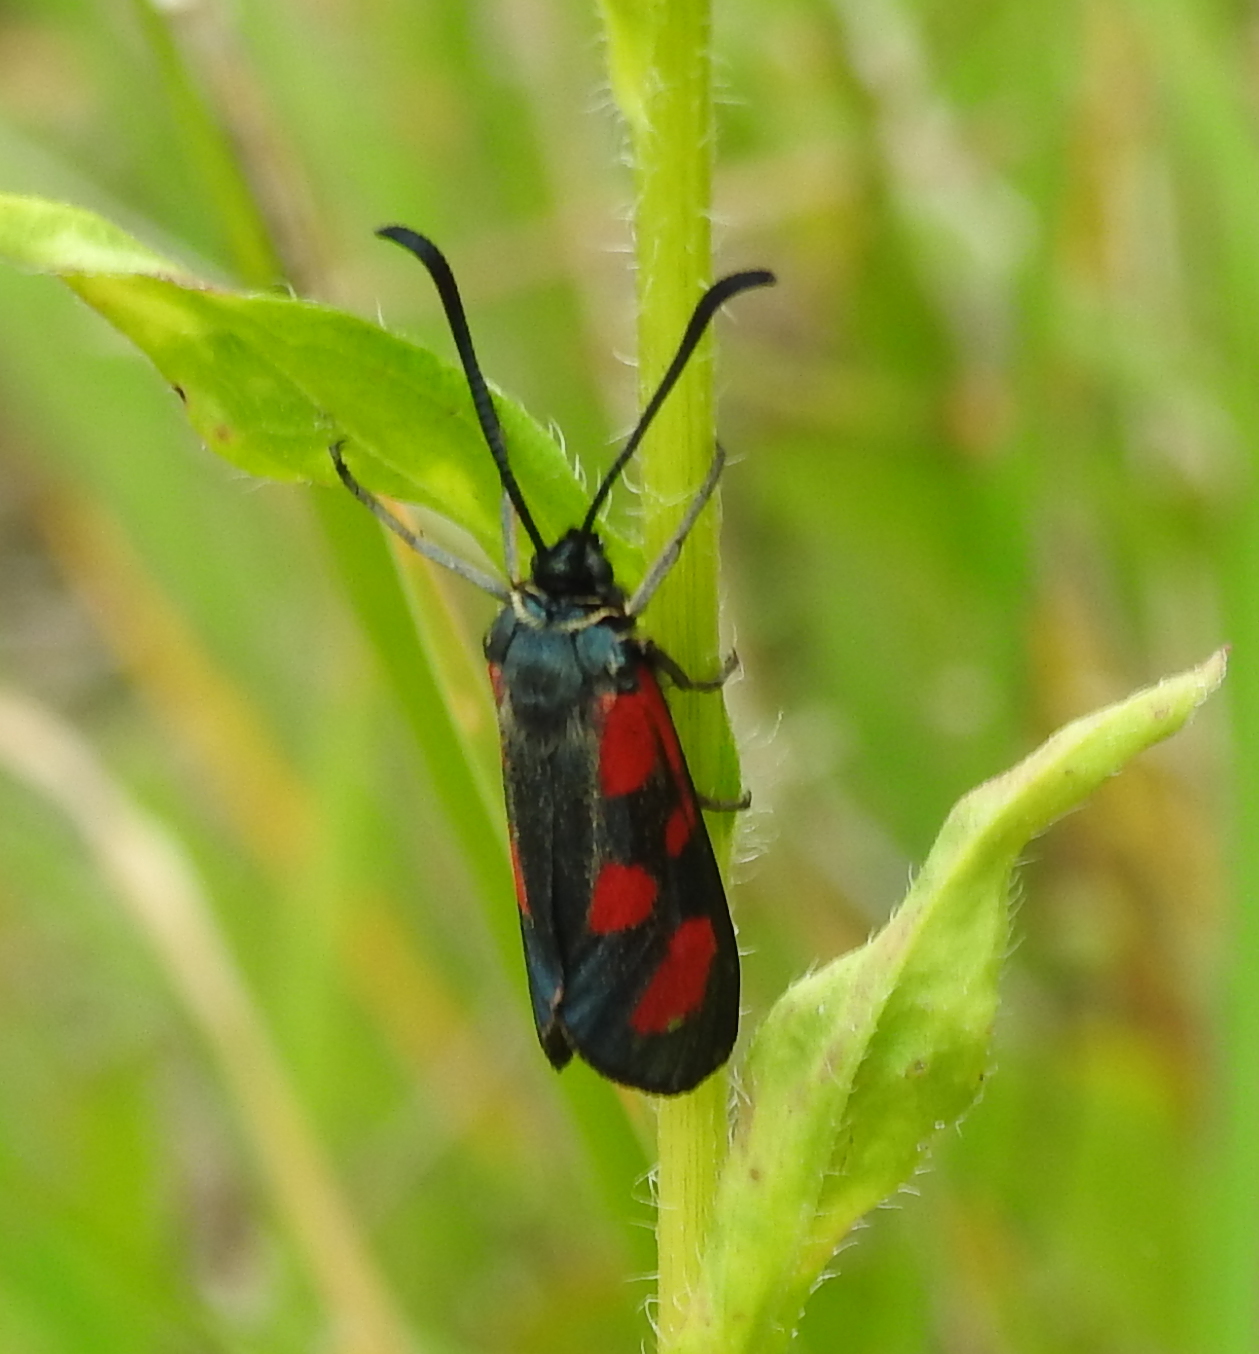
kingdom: Animalia
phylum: Arthropoda
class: Insecta
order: Lepidoptera
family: Zygaenidae
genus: Zygaena
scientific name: Zygaena loti
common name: Slender scotch burnet
